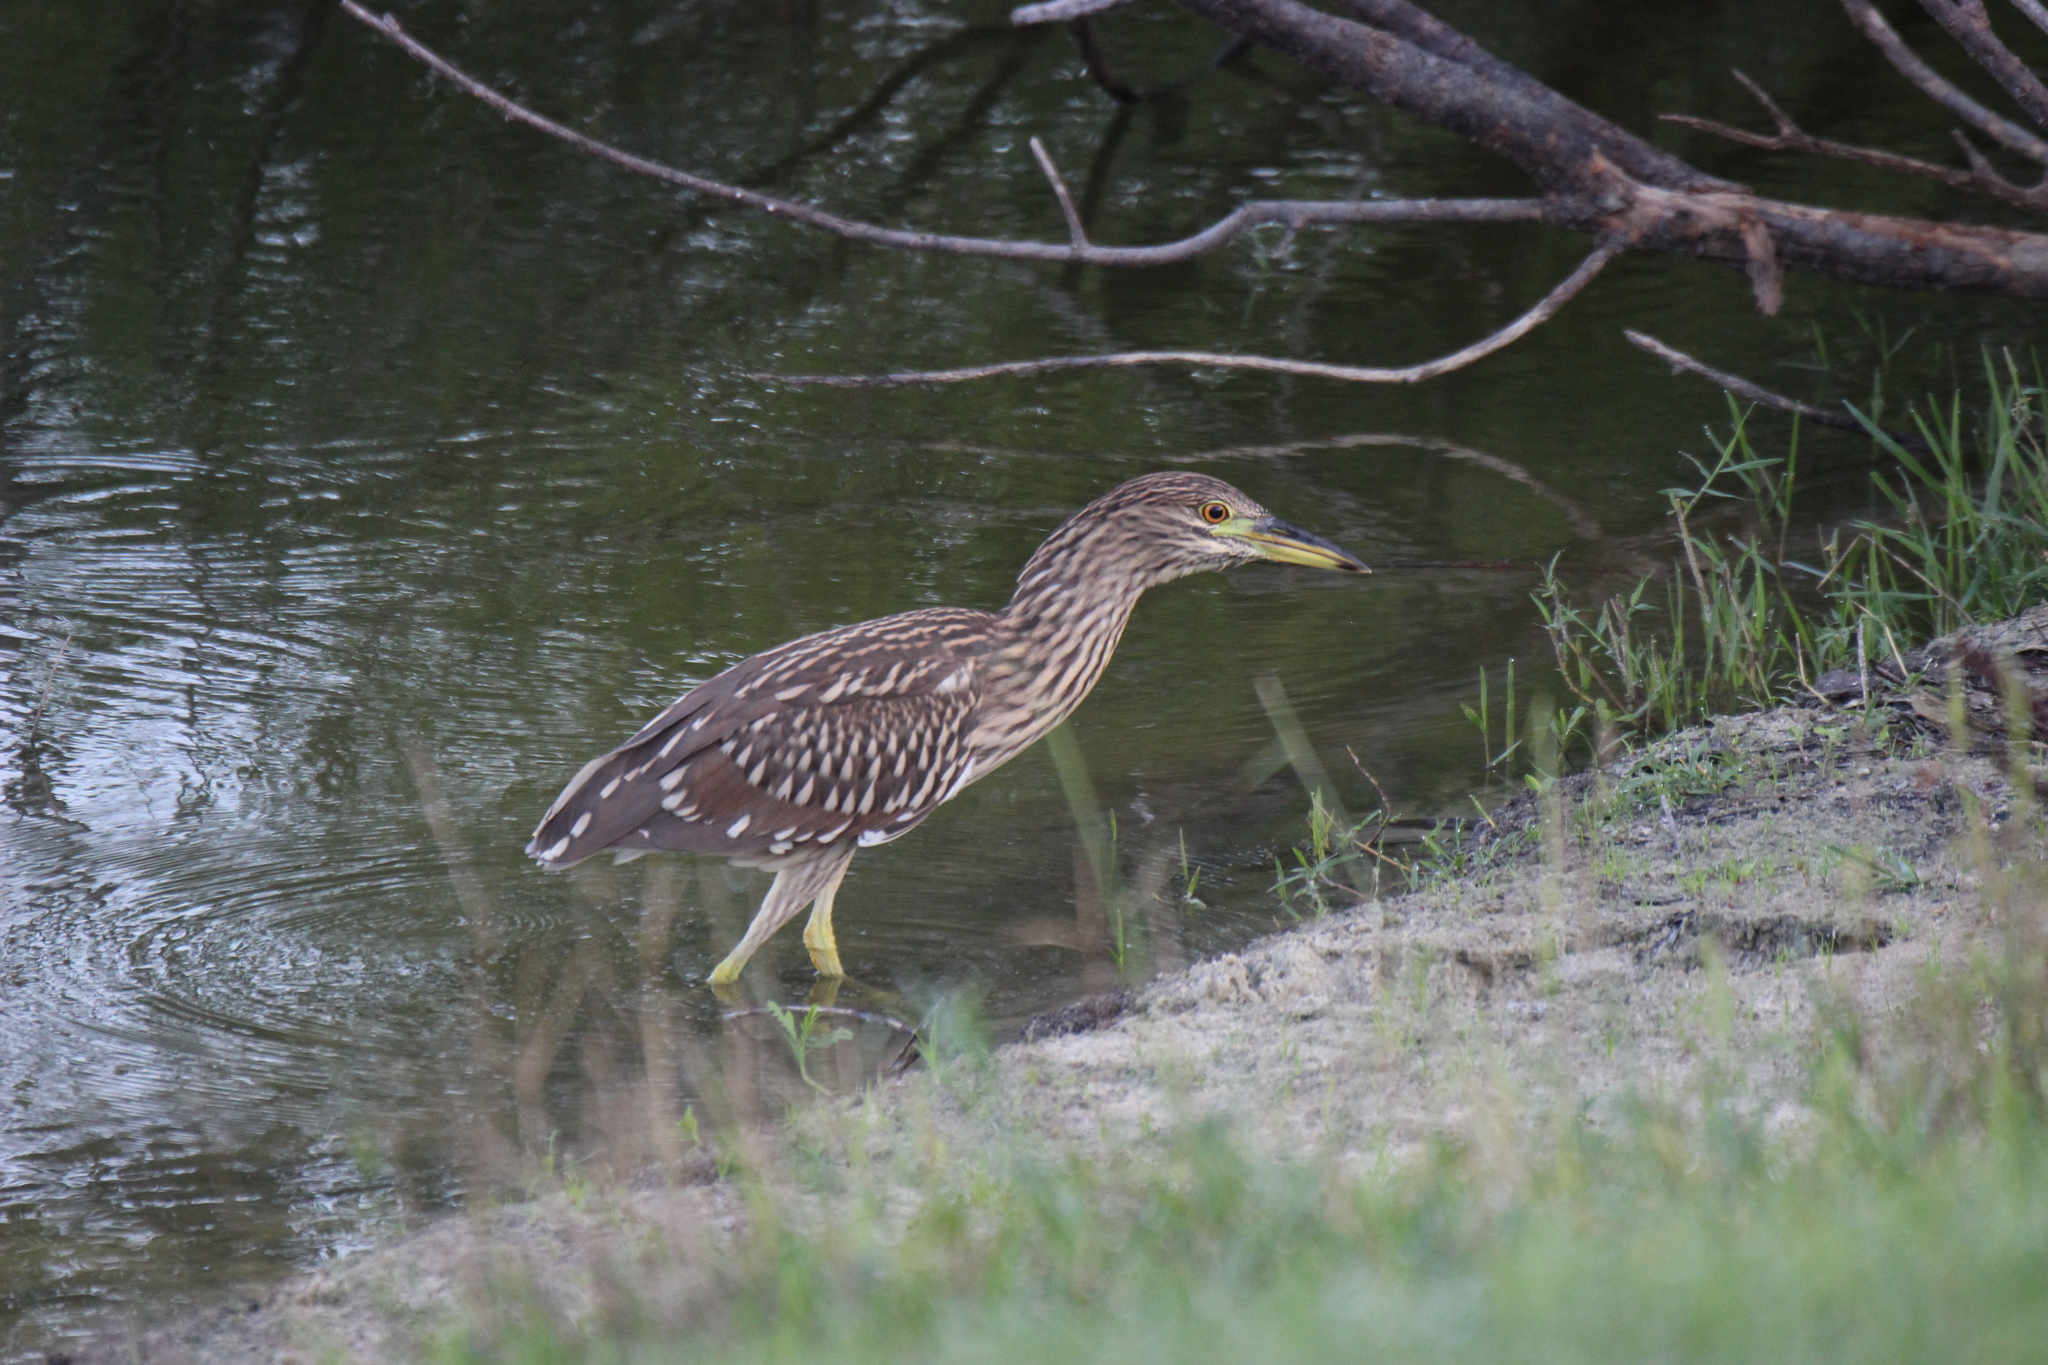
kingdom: Animalia
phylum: Chordata
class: Aves
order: Pelecaniformes
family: Ardeidae
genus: Nycticorax
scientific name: Nycticorax nycticorax
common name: Black-crowned night heron
